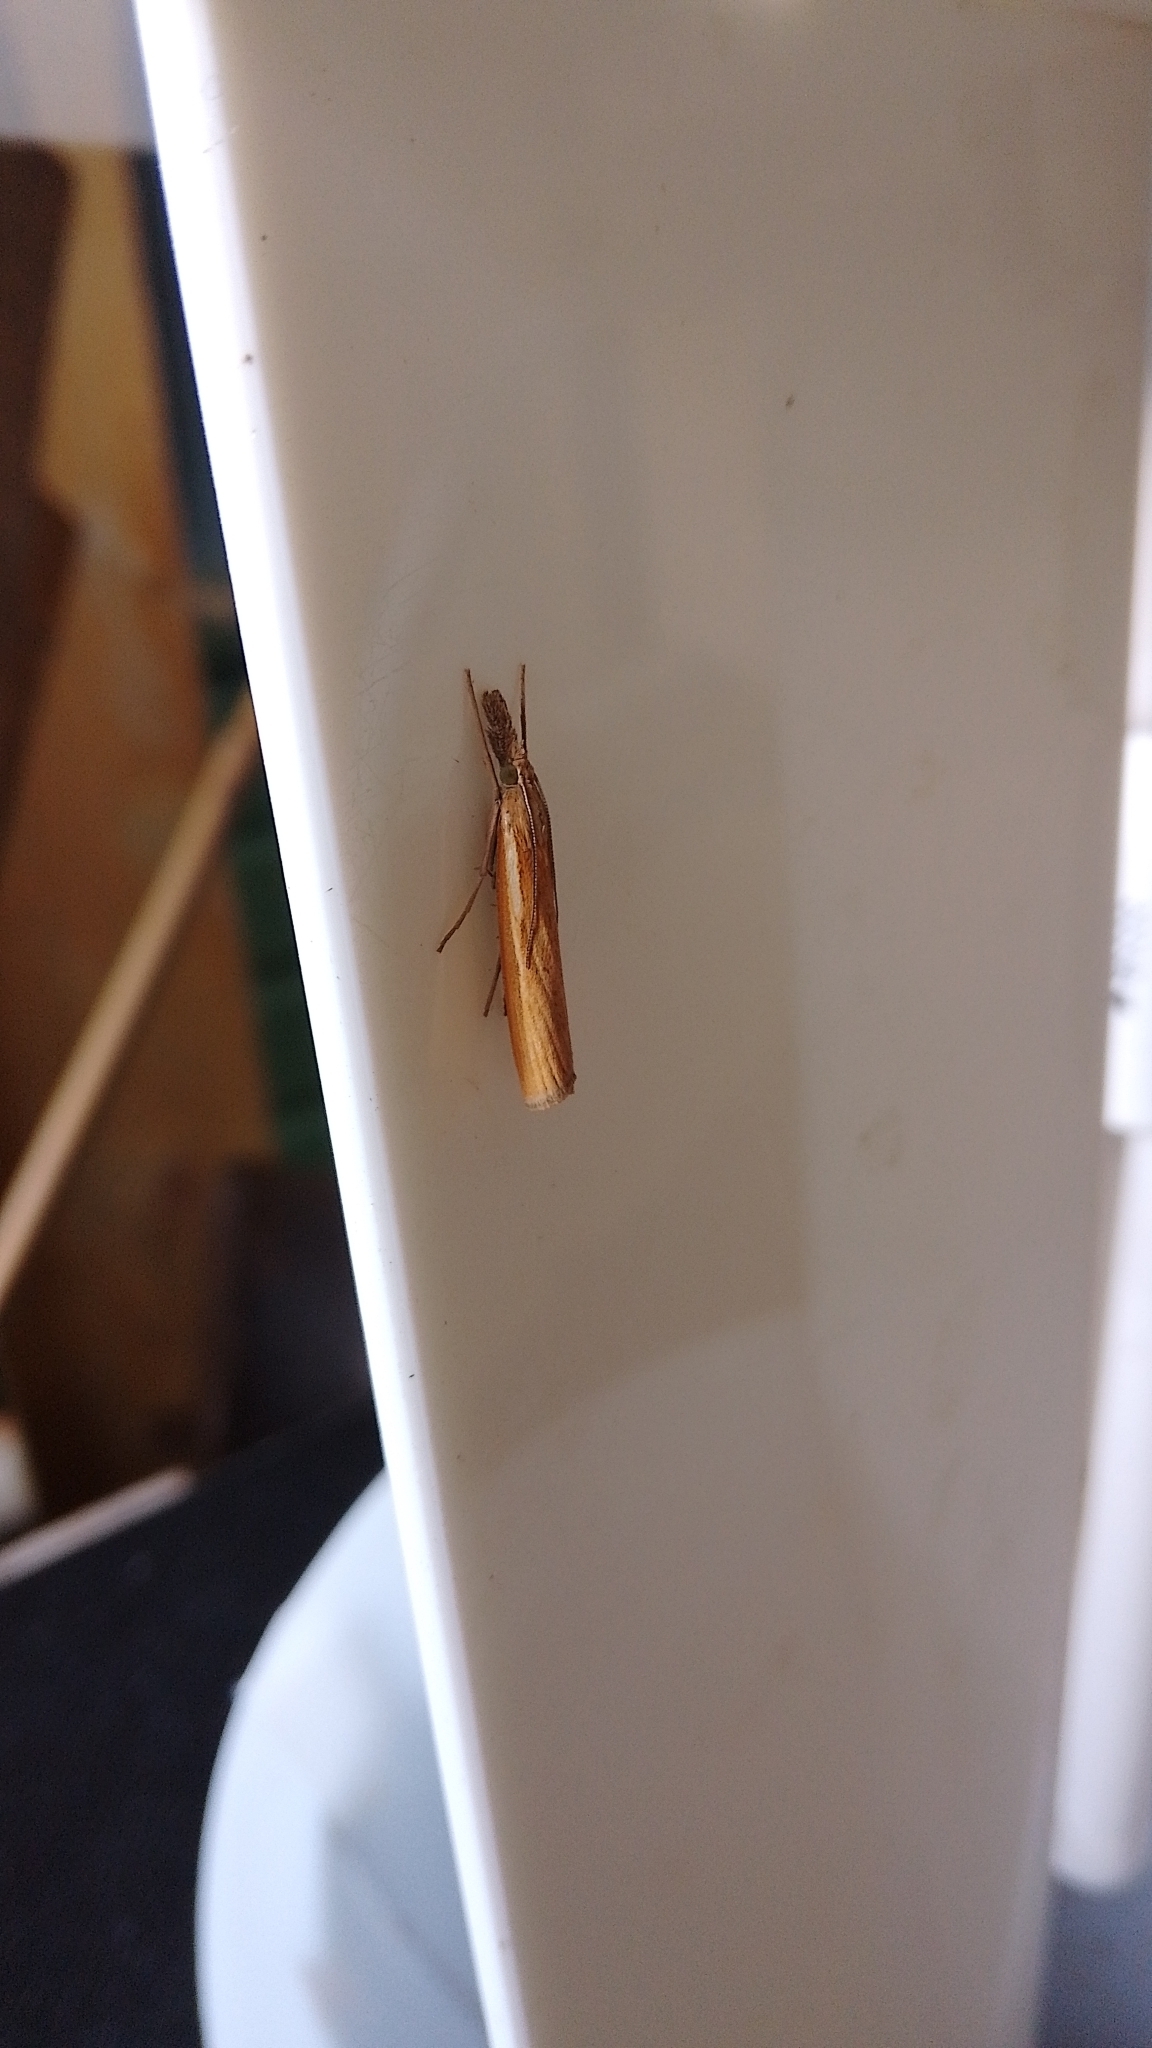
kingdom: Animalia
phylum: Arthropoda
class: Insecta
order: Lepidoptera
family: Crambidae
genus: Agriphila
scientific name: Agriphila tristellus
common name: Common grass-veneer
